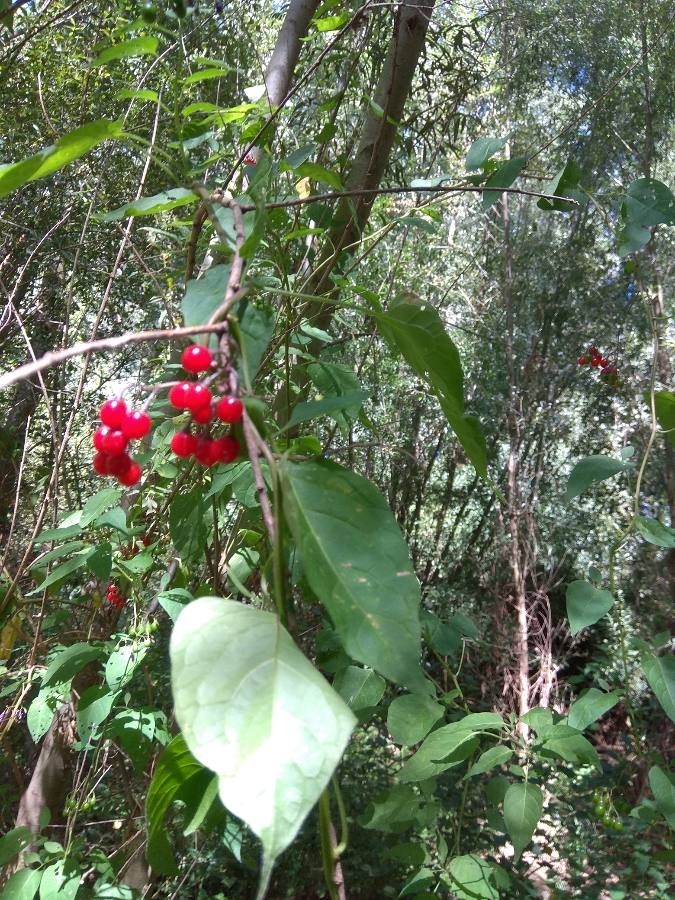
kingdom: Plantae
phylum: Tracheophyta
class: Magnoliopsida
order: Solanales
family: Solanaceae
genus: Solanum
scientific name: Solanum dulcamara
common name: Climbing nightshade
